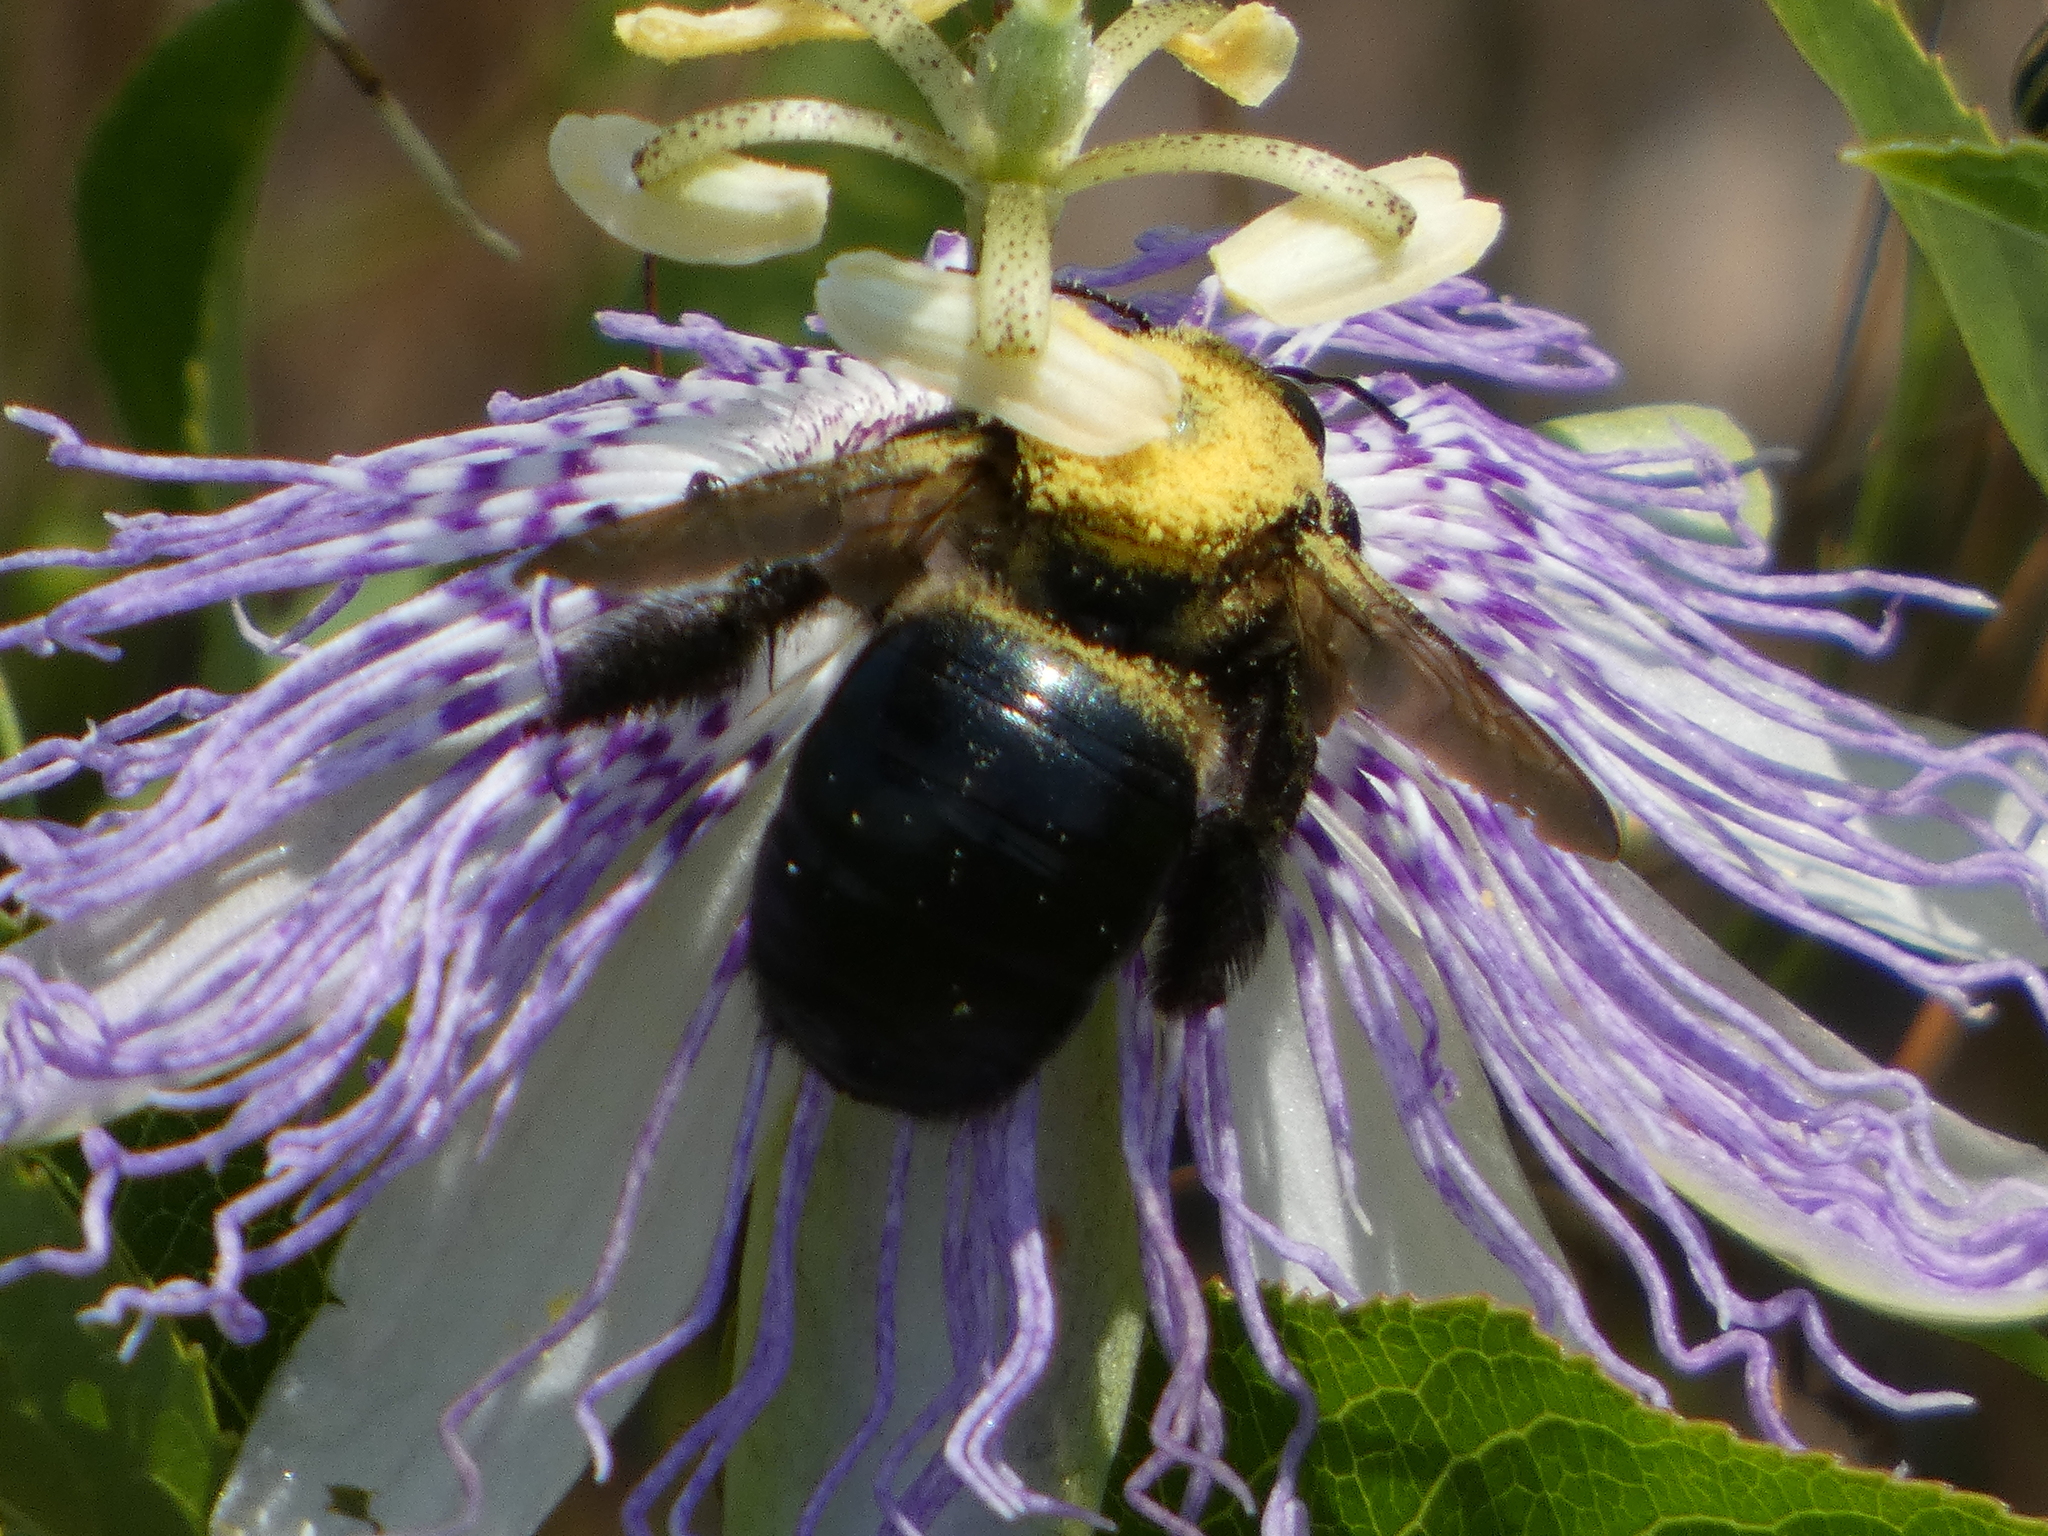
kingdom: Animalia
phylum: Arthropoda
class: Insecta
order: Hymenoptera
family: Apidae
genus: Xylocopa
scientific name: Xylocopa micans
